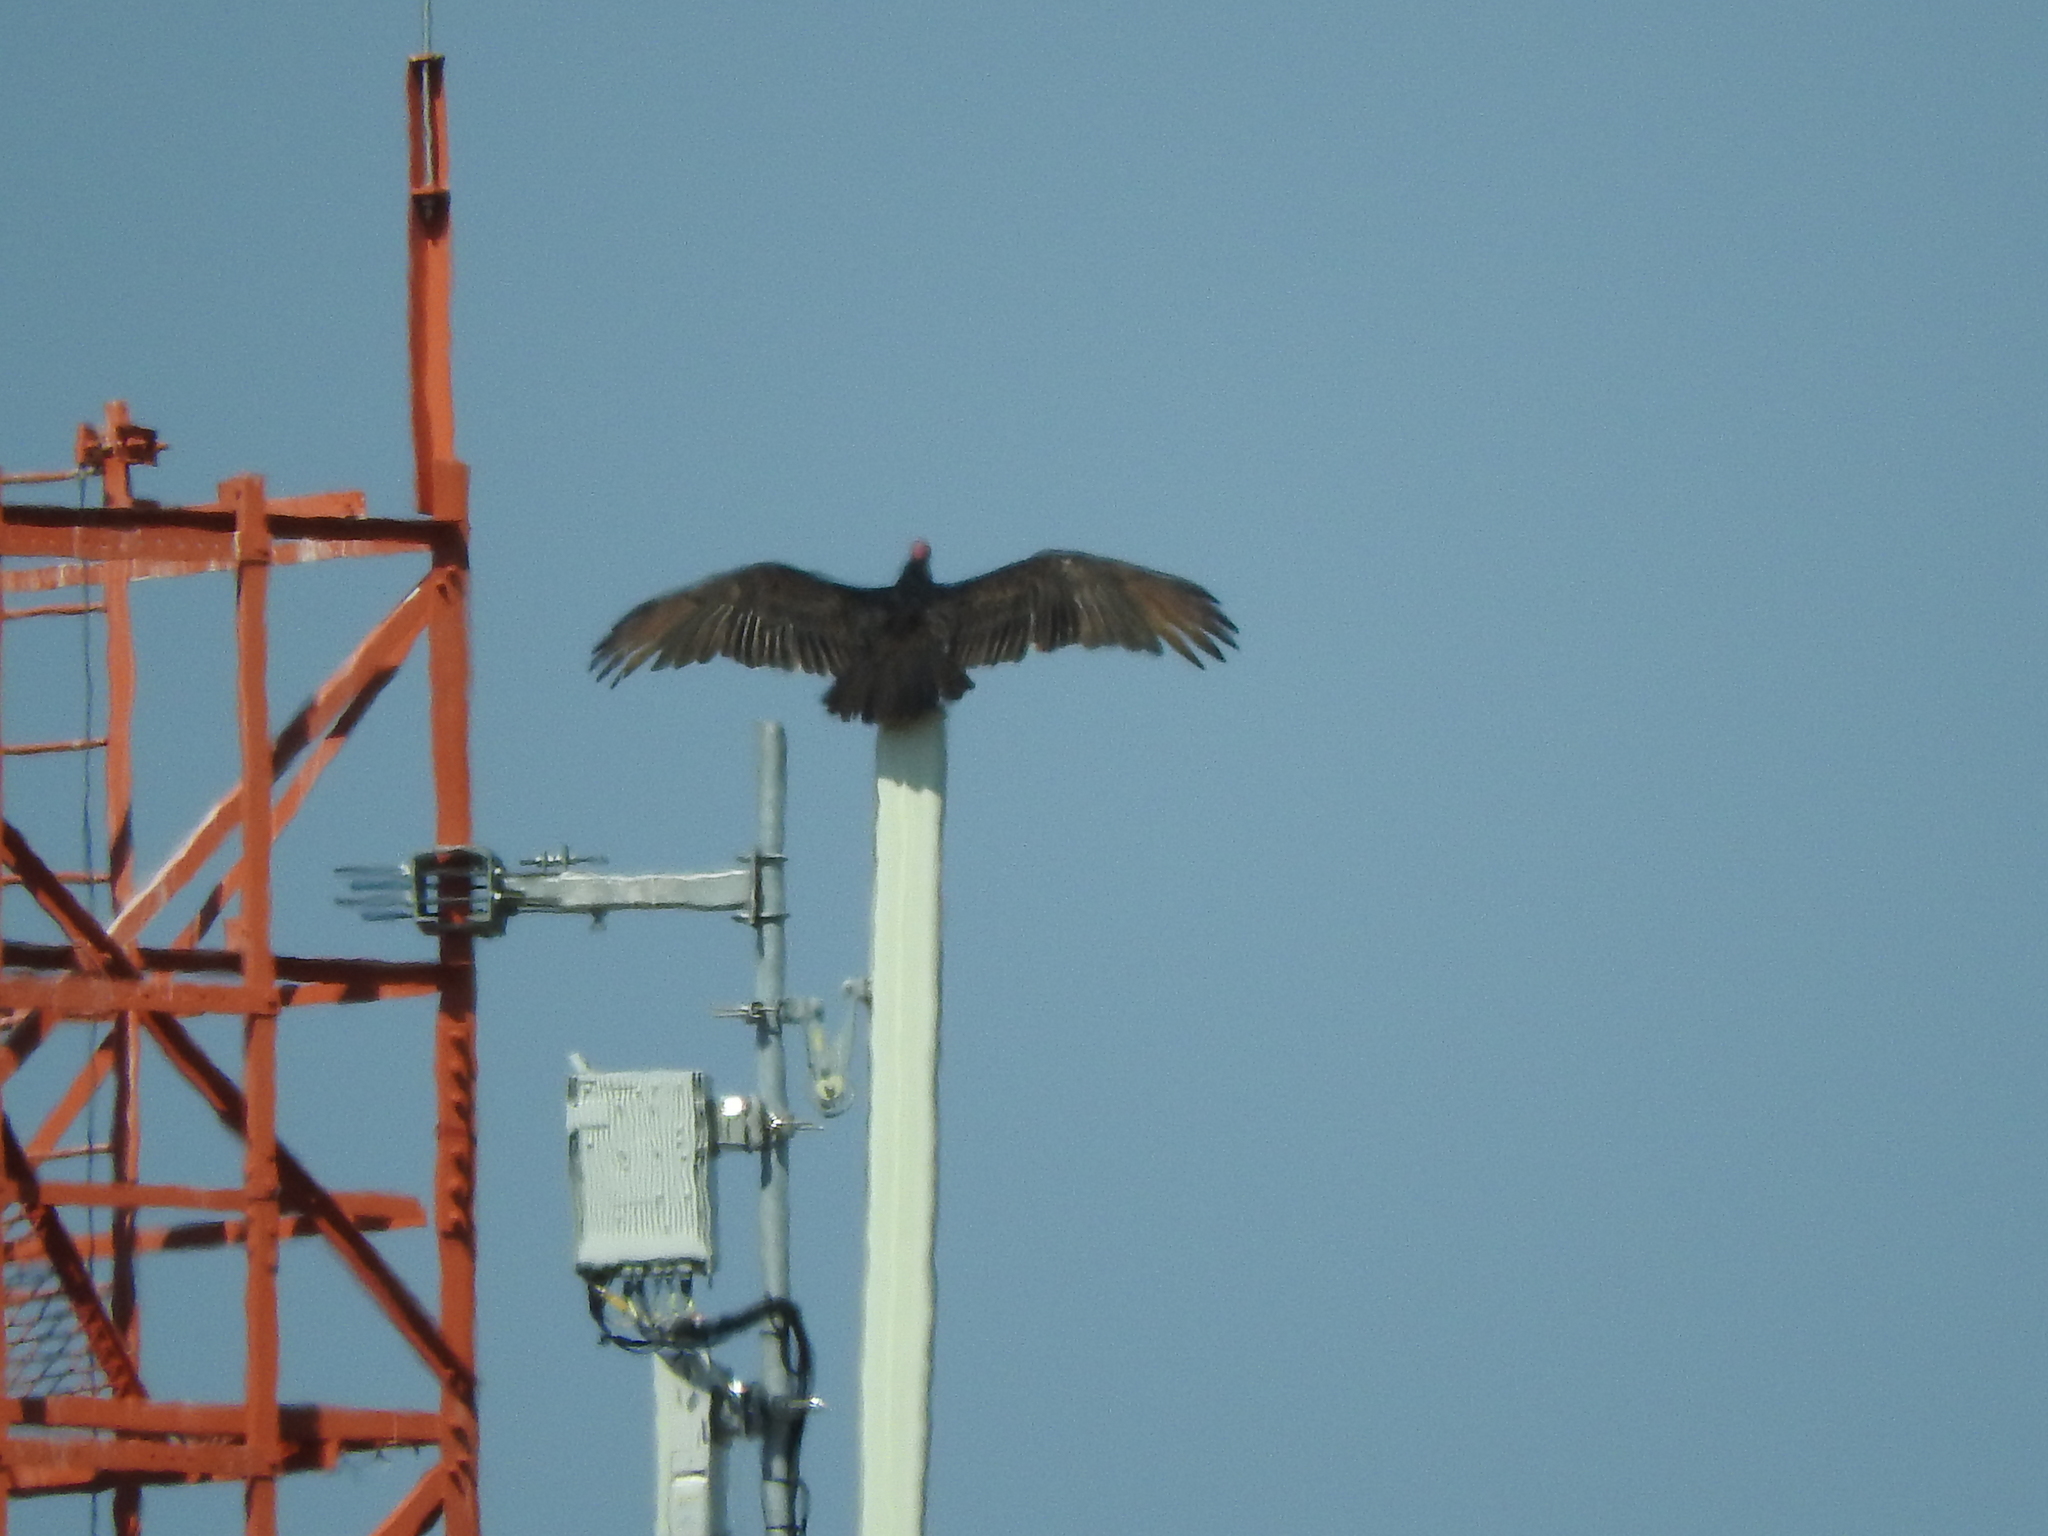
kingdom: Animalia
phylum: Chordata
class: Aves
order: Accipitriformes
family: Cathartidae
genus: Cathartes
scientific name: Cathartes aura
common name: Turkey vulture
